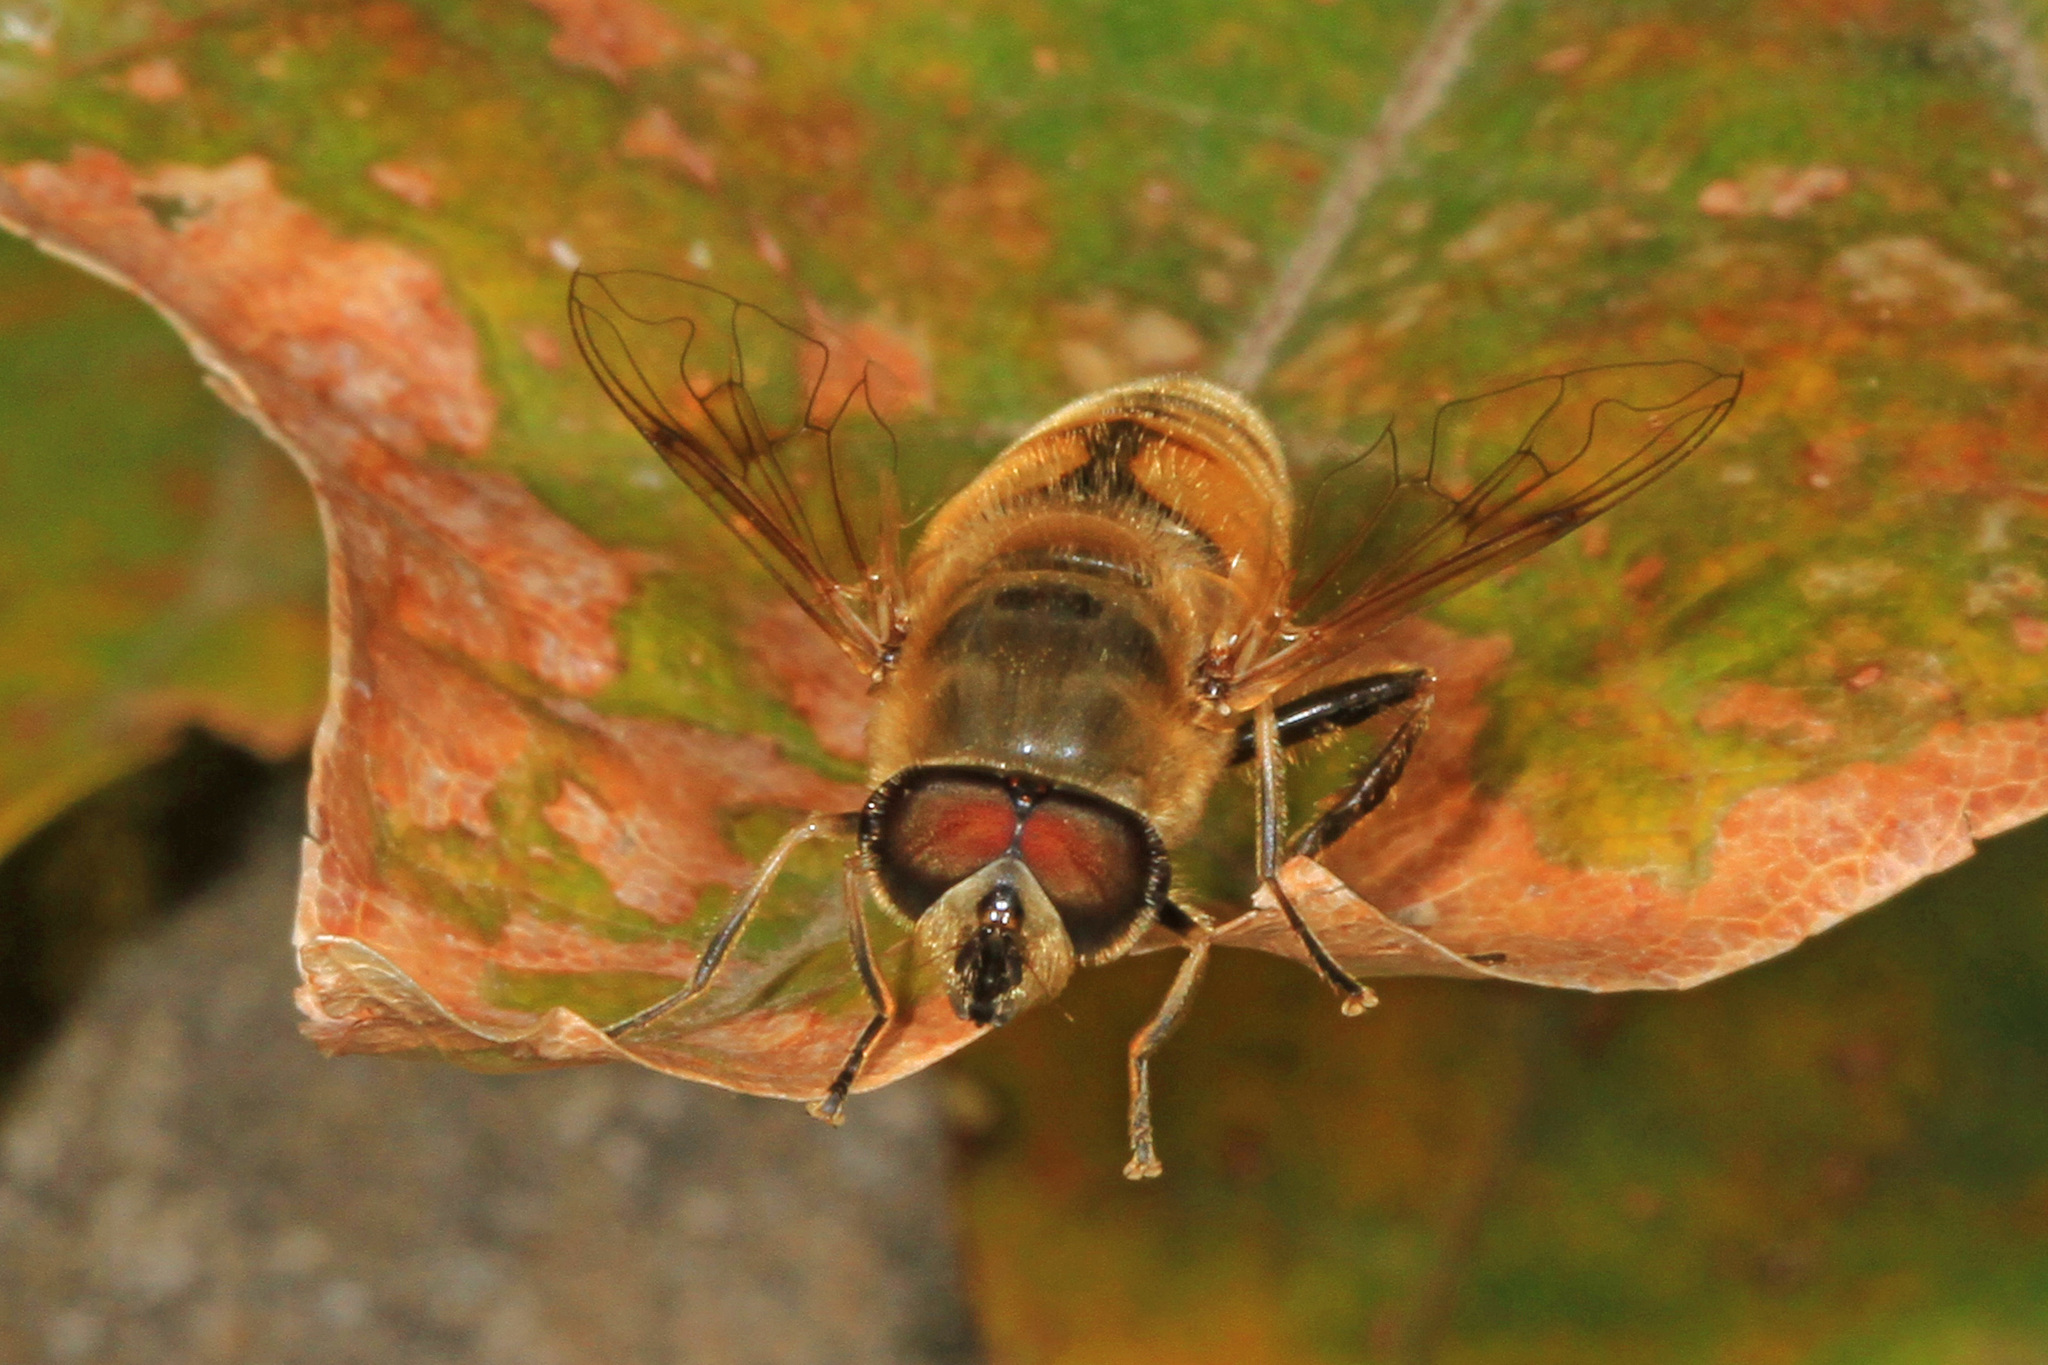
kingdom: Animalia
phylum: Arthropoda
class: Insecta
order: Diptera
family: Syrphidae
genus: Eristalis
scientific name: Eristalis tenax
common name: Drone fly
